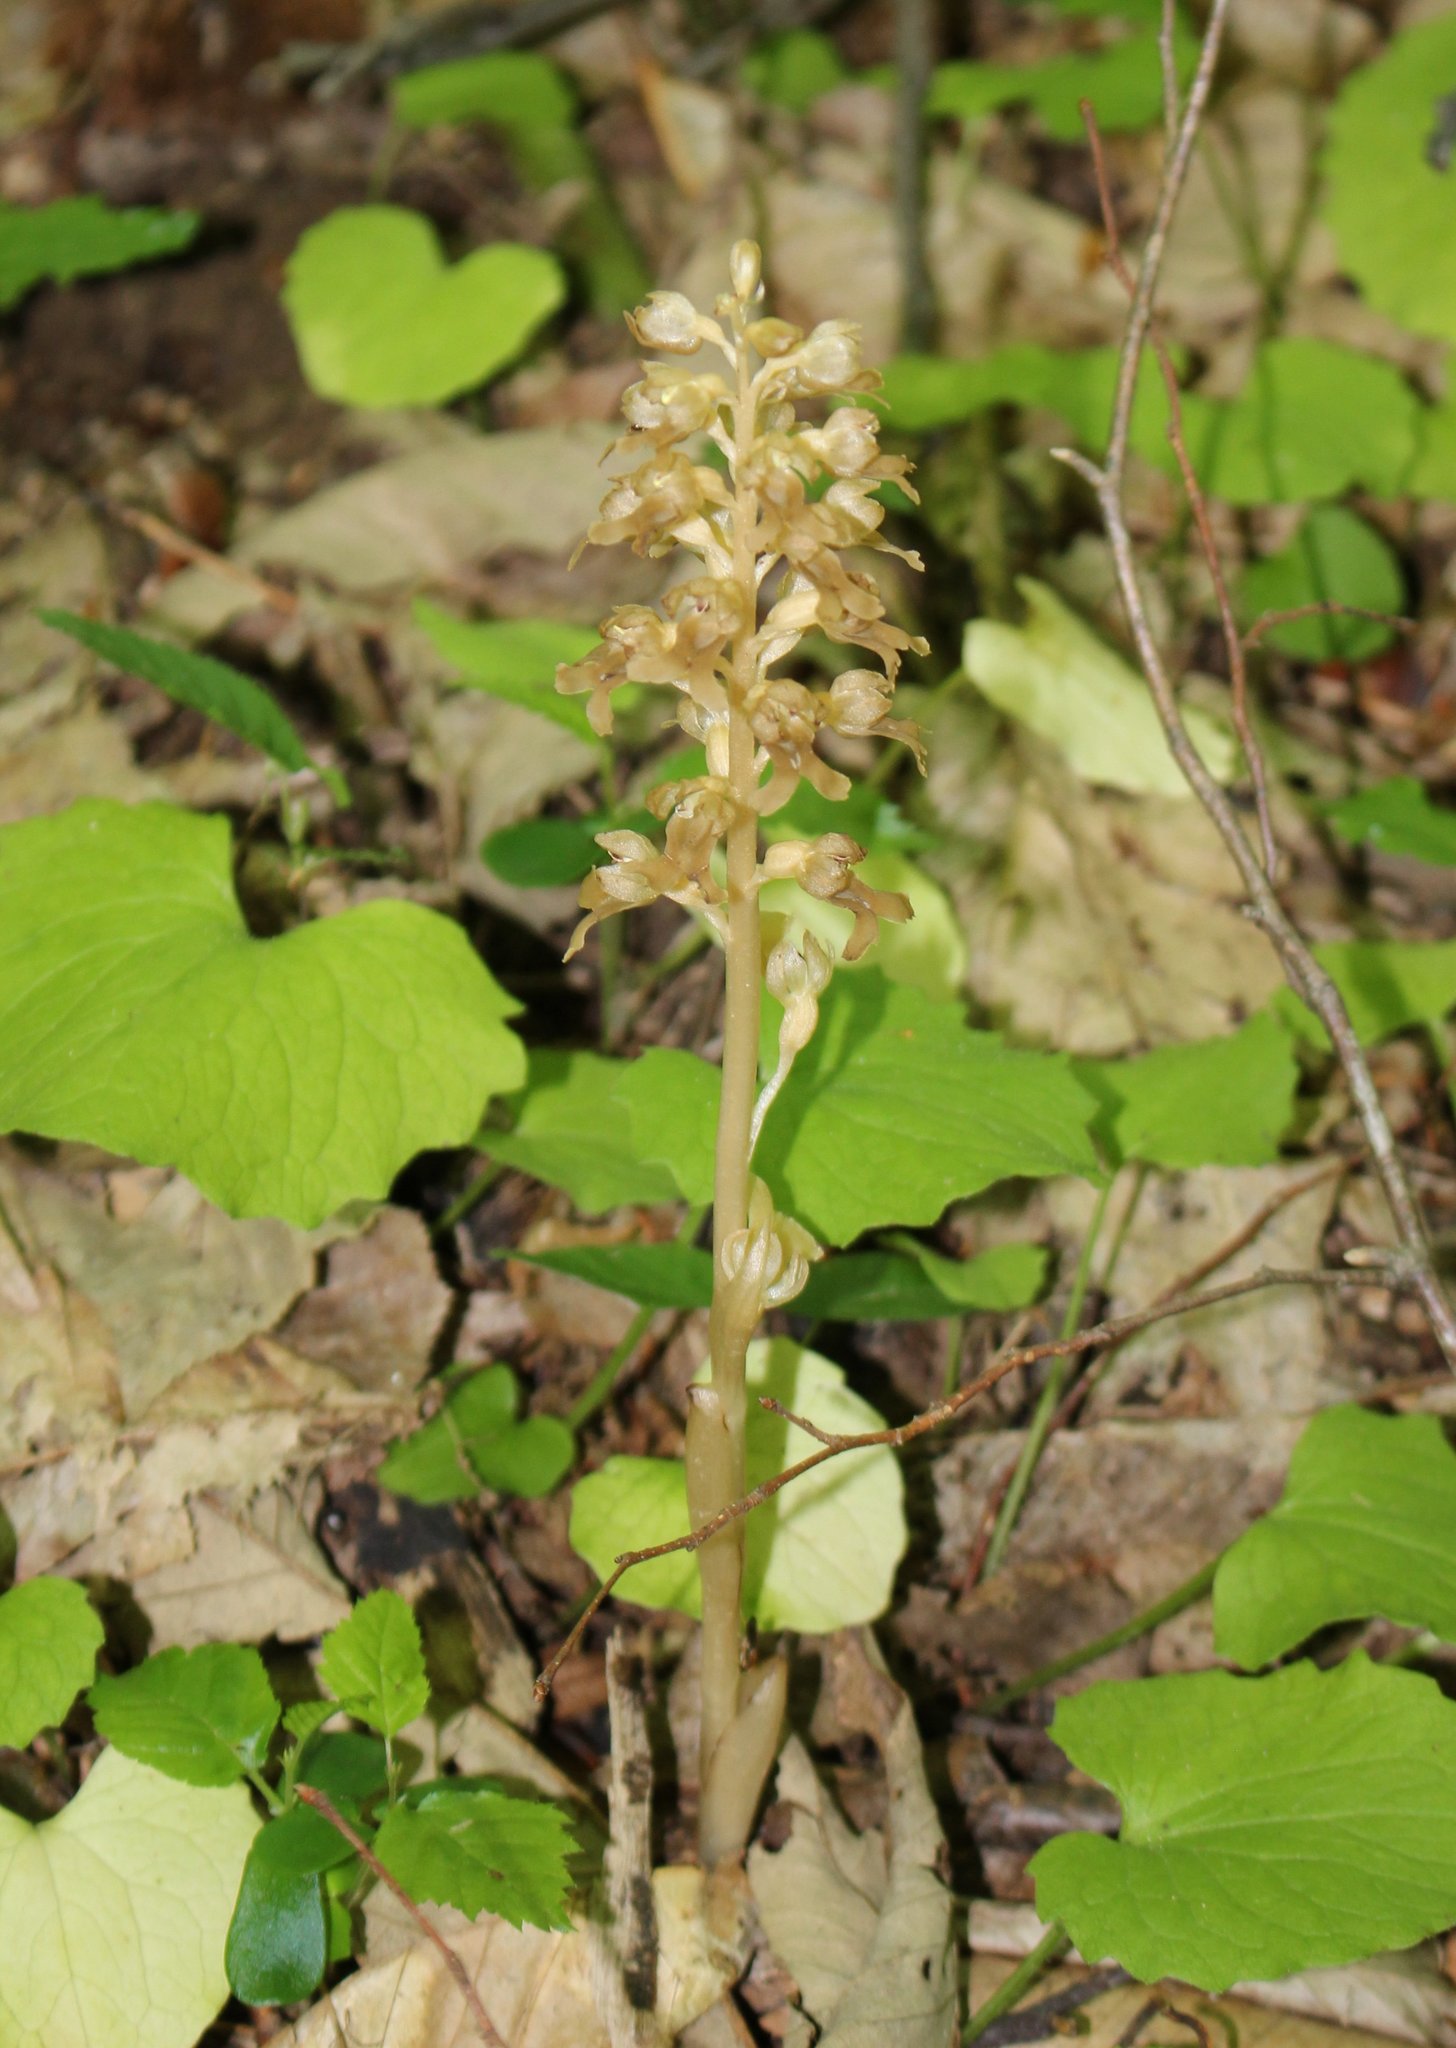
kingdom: Plantae
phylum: Tracheophyta
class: Liliopsida
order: Asparagales
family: Orchidaceae
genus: Neottia
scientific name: Neottia nidus-avis
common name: Bird's-nest orchid
